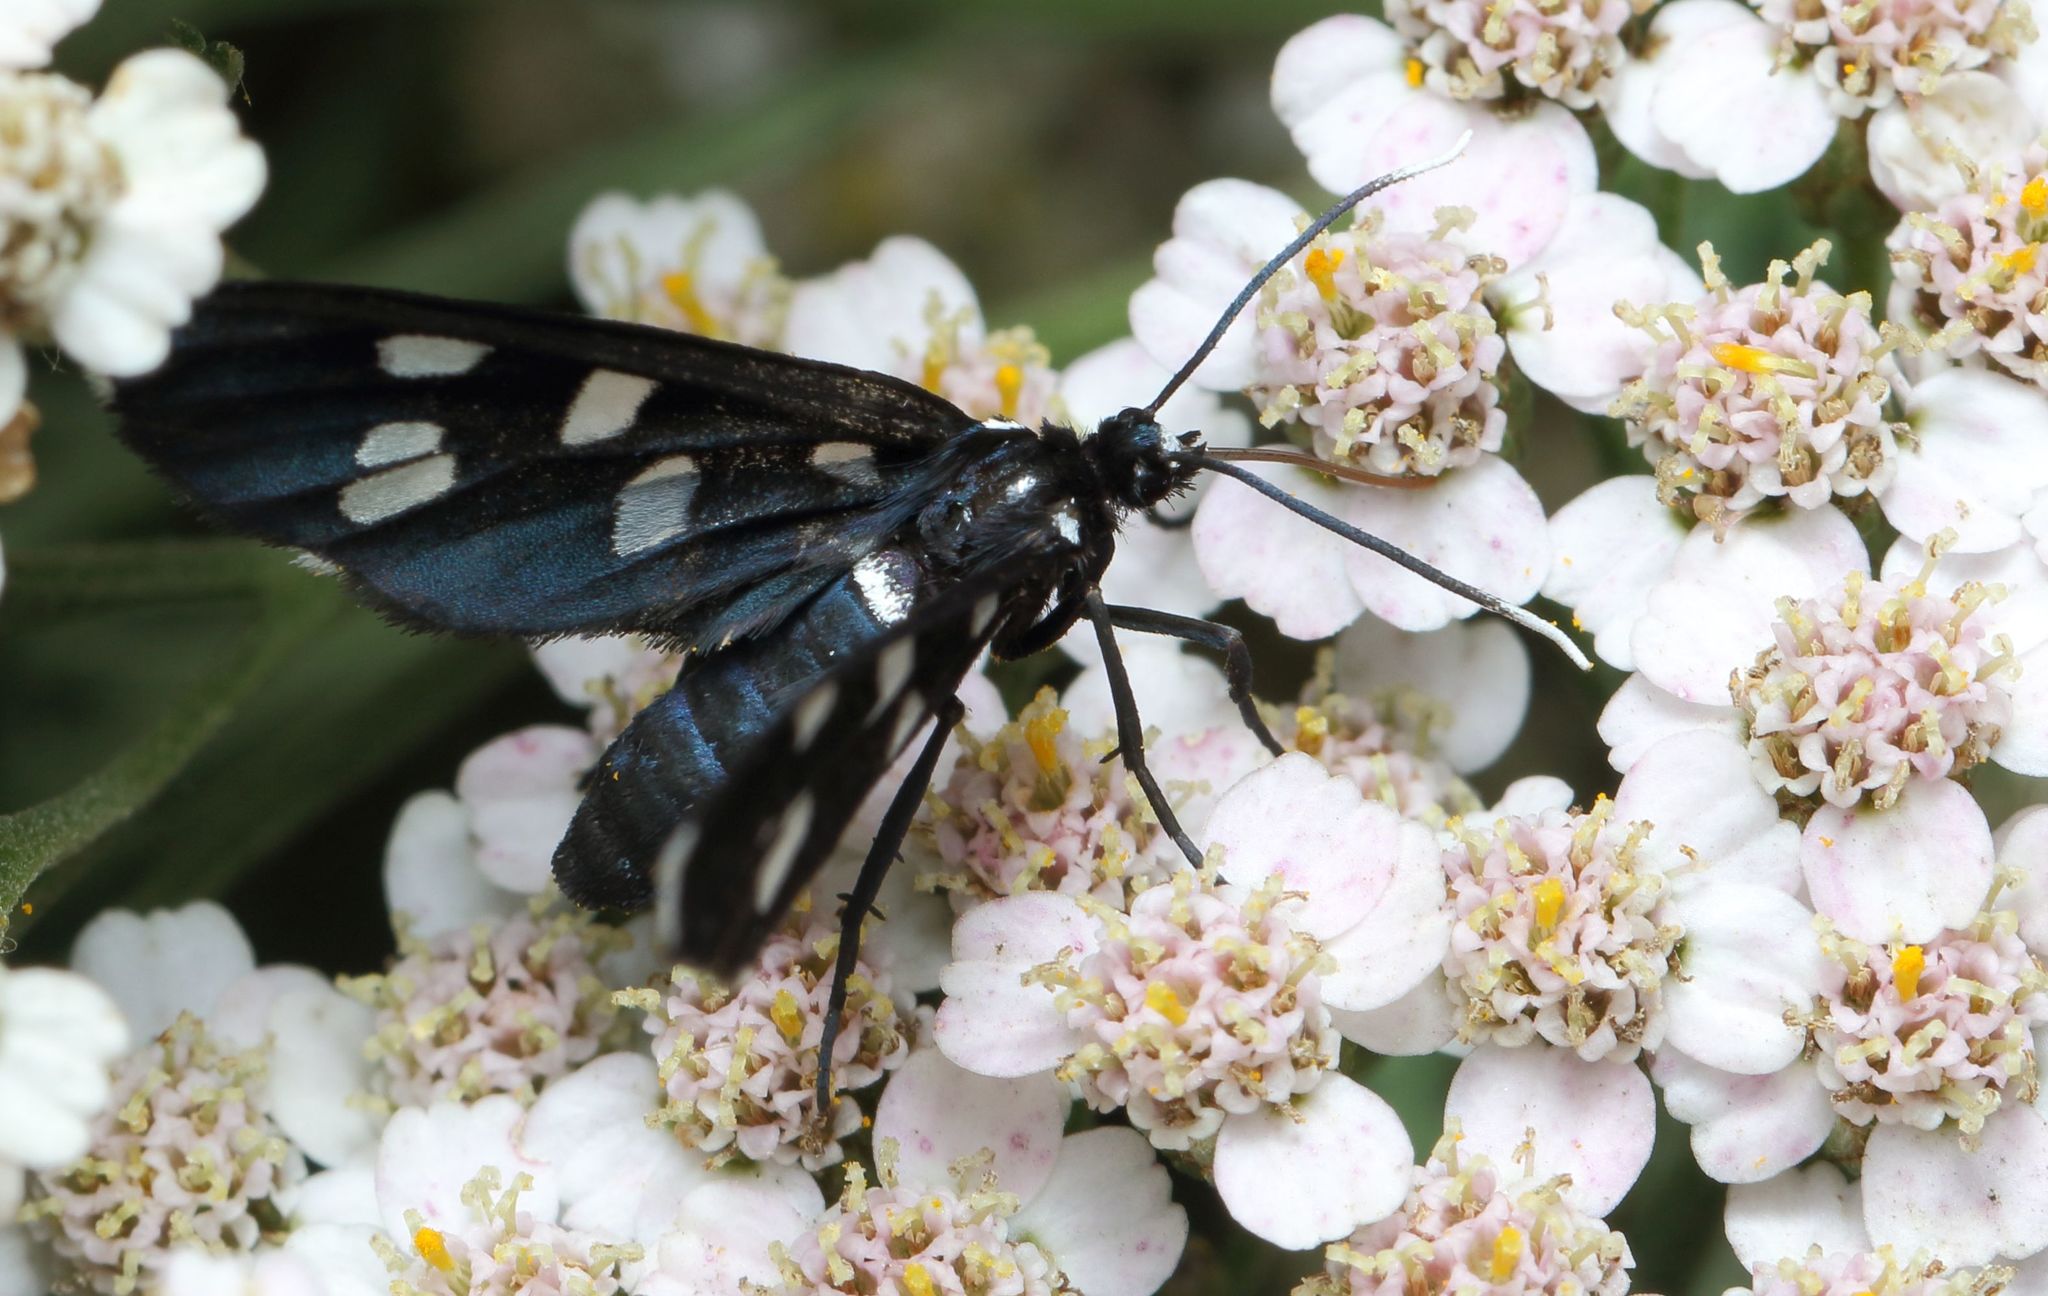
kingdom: Animalia
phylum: Arthropoda
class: Insecta
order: Lepidoptera
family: Erebidae
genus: Ceryx
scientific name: Ceryx longipes
